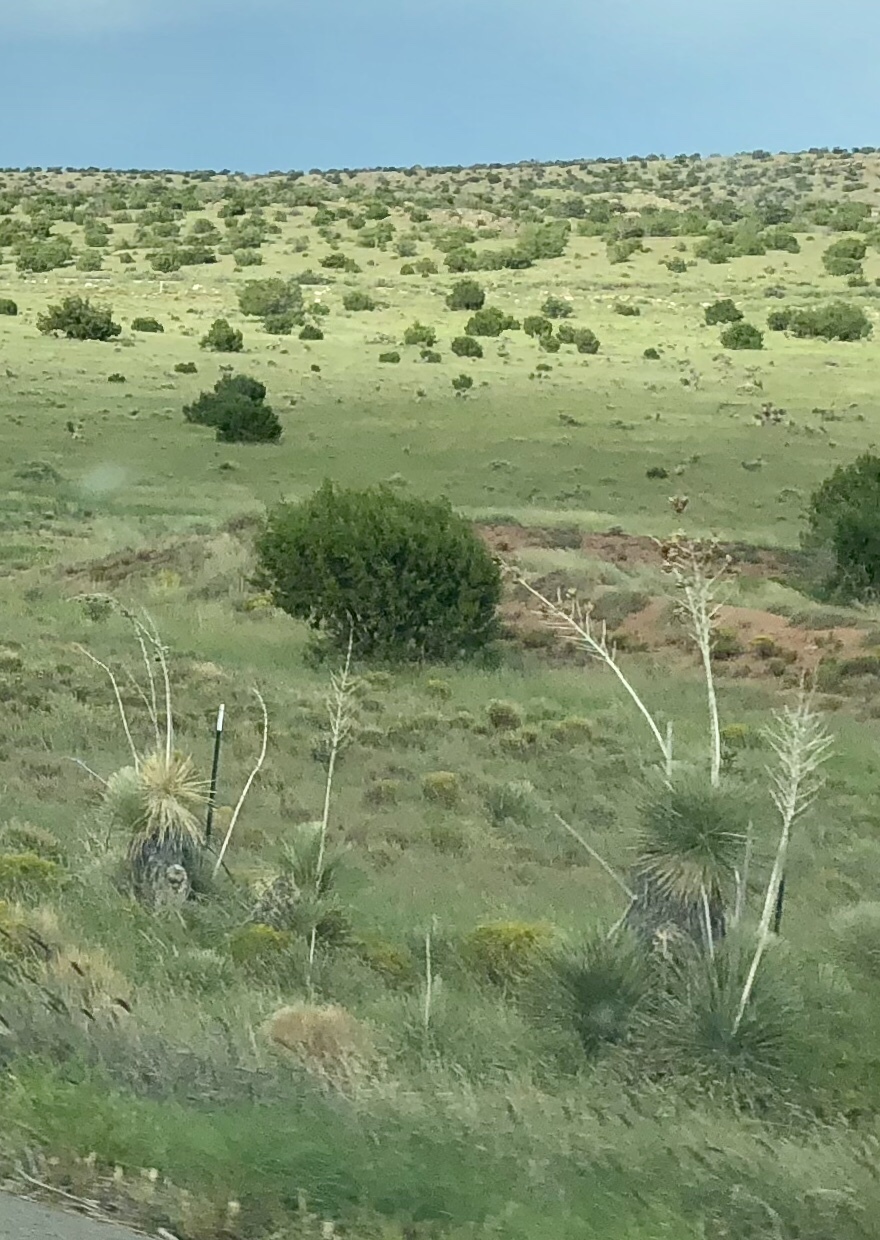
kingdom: Plantae
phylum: Tracheophyta
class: Liliopsida
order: Asparagales
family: Asparagaceae
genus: Yucca
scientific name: Yucca elata
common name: Palmella
